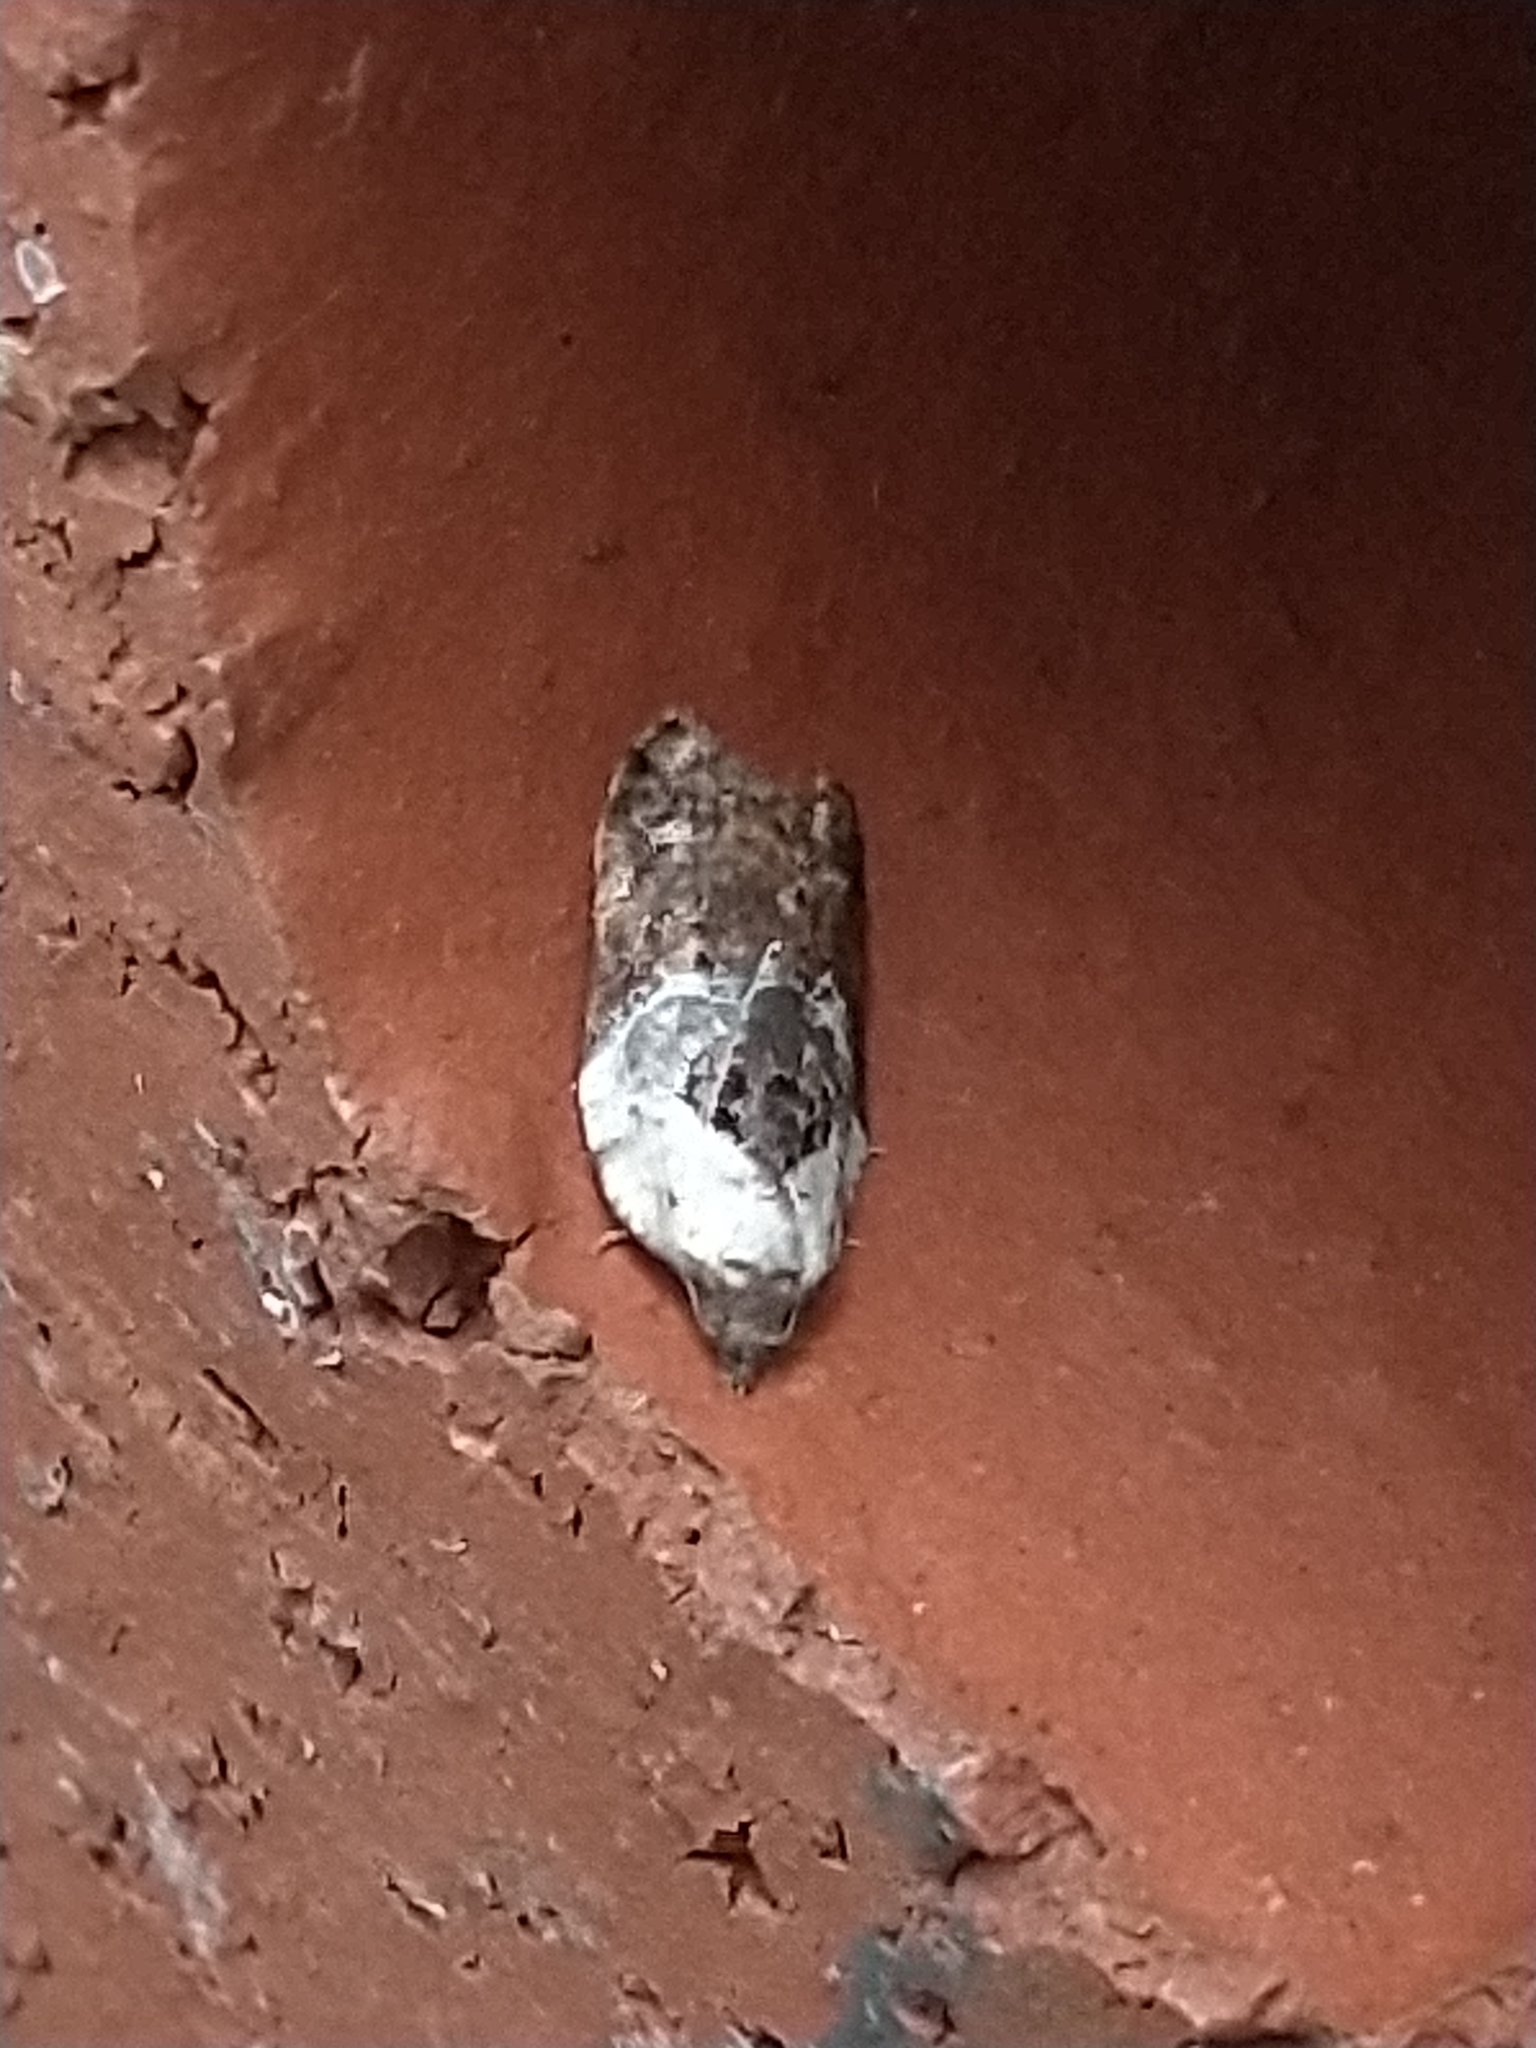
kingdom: Animalia
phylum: Arthropoda
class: Insecta
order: Lepidoptera
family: Tortricidae
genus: Acleris
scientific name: Acleris variegana
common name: Garden rose tortrix
